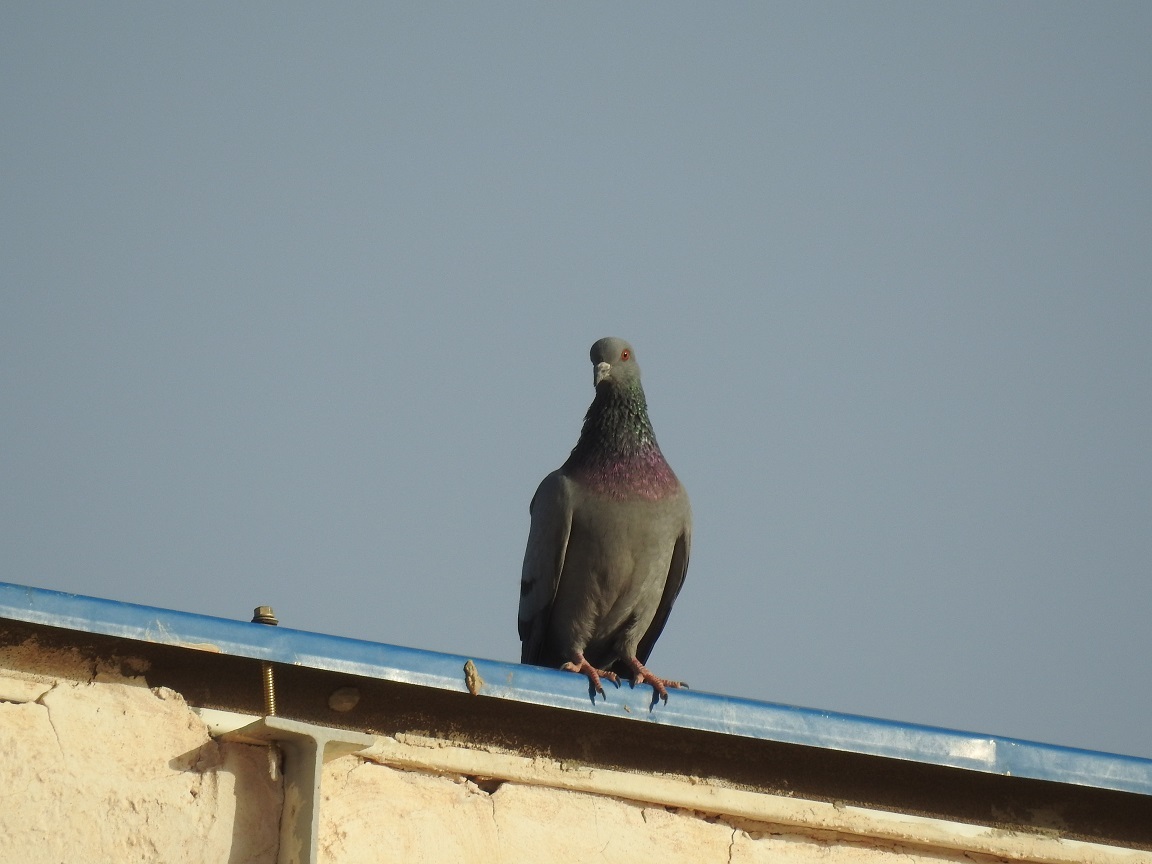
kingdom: Animalia
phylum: Chordata
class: Aves
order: Columbiformes
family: Columbidae
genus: Columba
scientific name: Columba livia
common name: Rock pigeon
